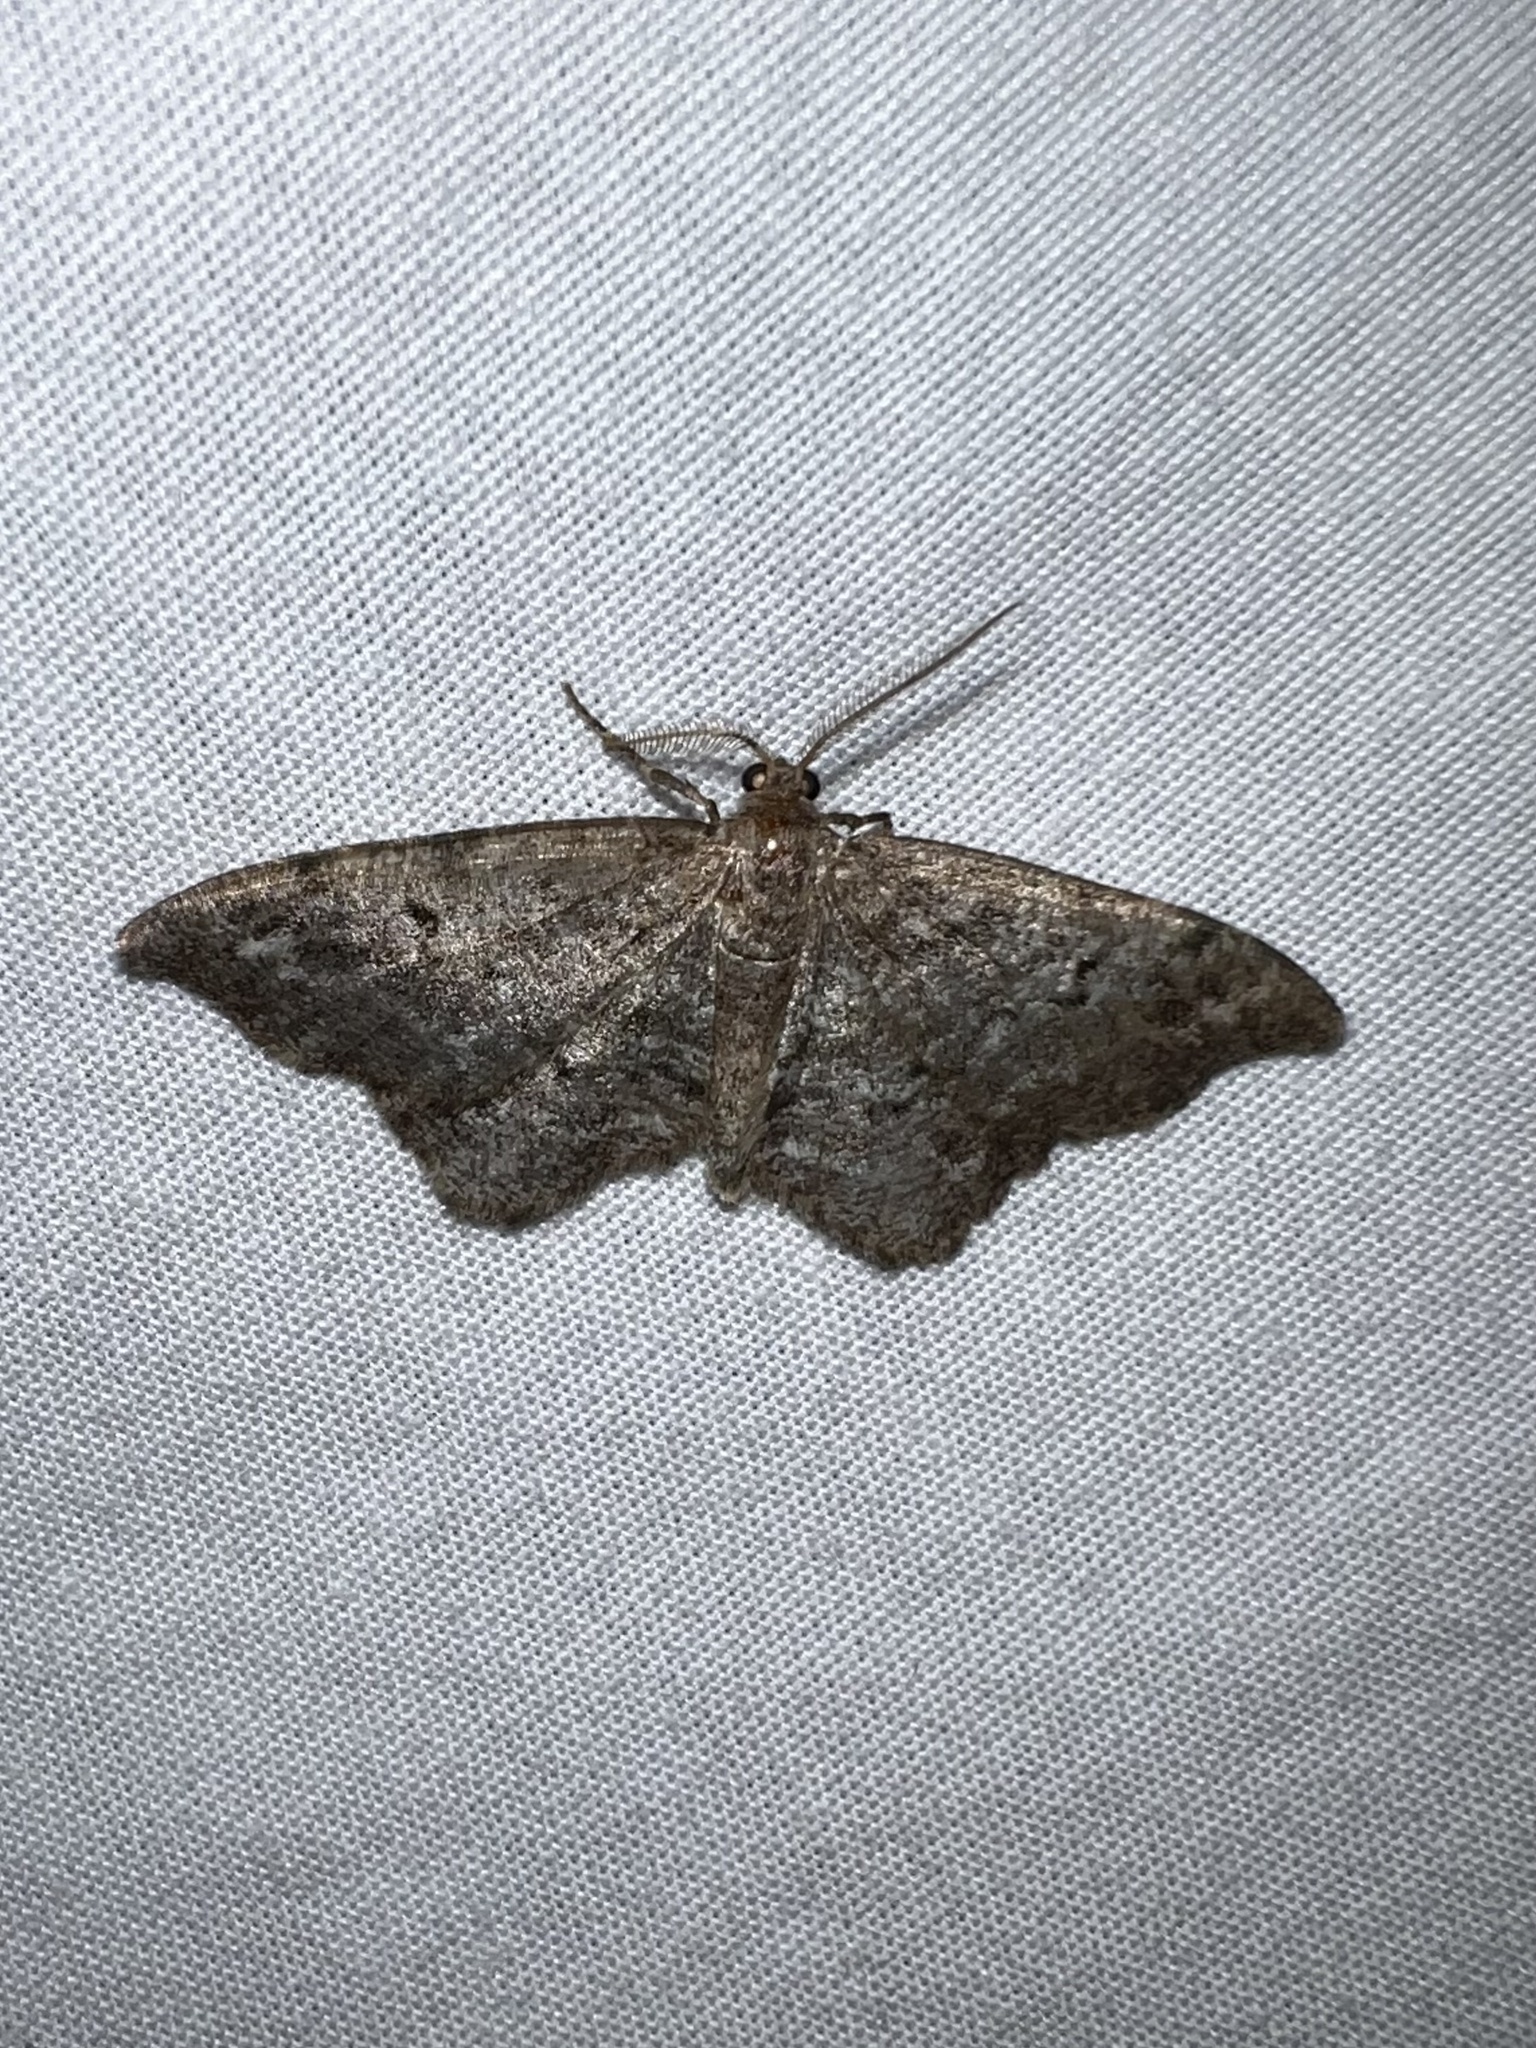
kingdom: Animalia
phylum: Arthropoda
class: Insecta
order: Lepidoptera
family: Geometridae
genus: Hypagyrtis
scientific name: Hypagyrtis piniata
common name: Pine measuringworm
